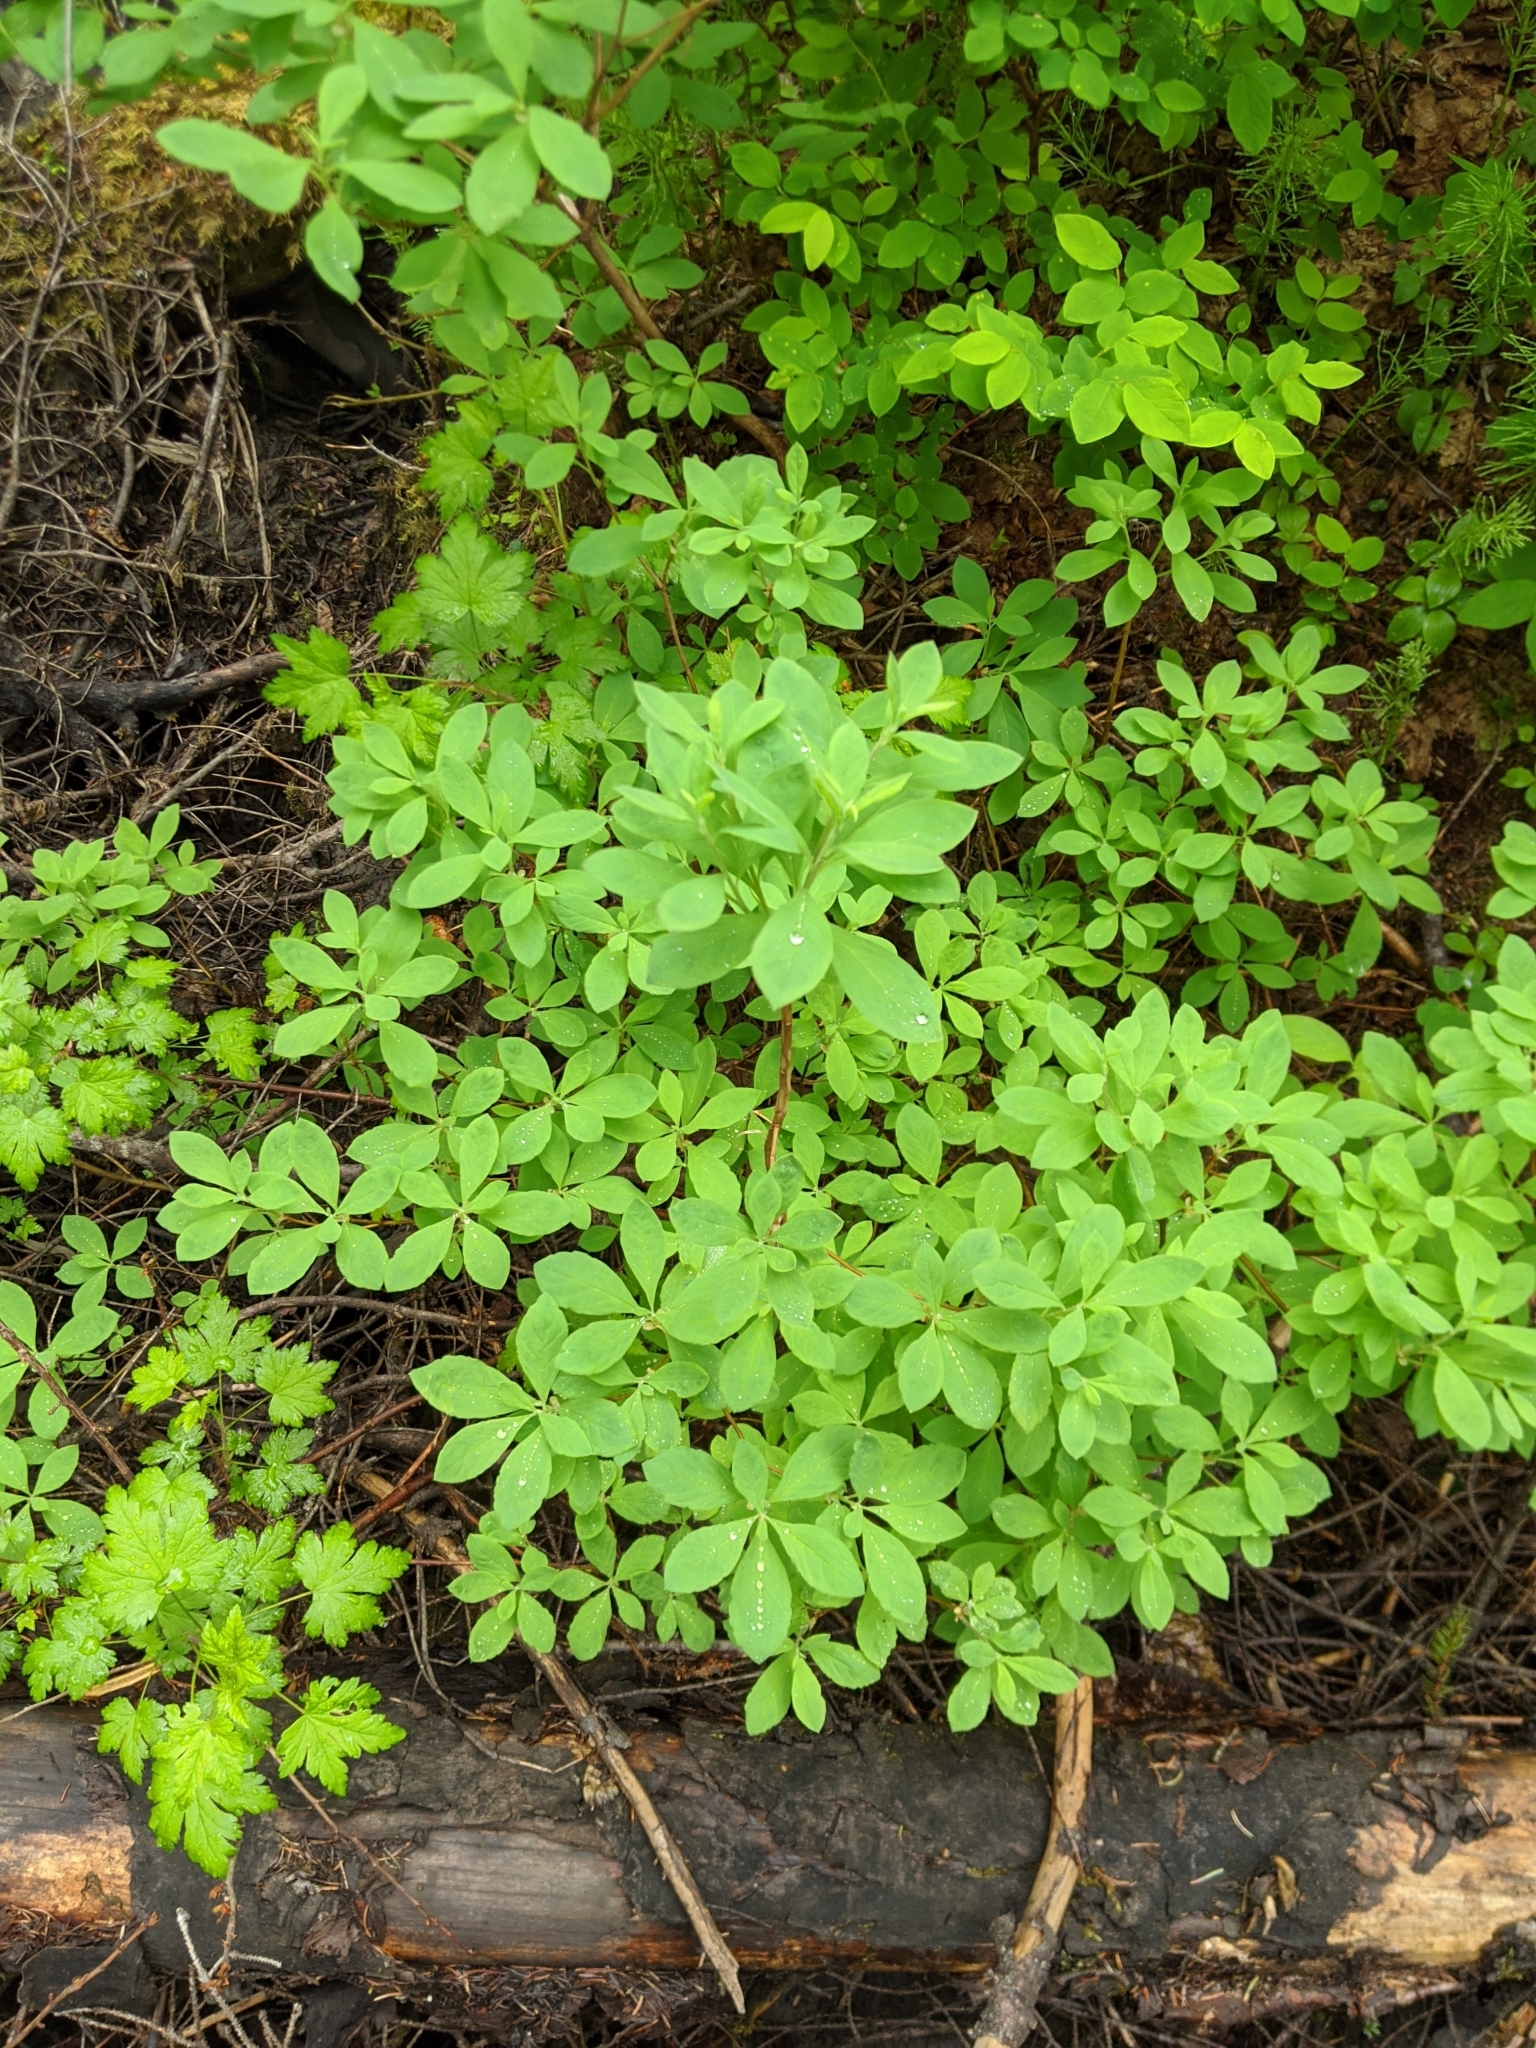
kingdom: Plantae
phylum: Tracheophyta
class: Magnoliopsida
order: Ericales
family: Ericaceae
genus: Rhododendron
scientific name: Rhododendron menziesii
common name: Pacific menziesia
